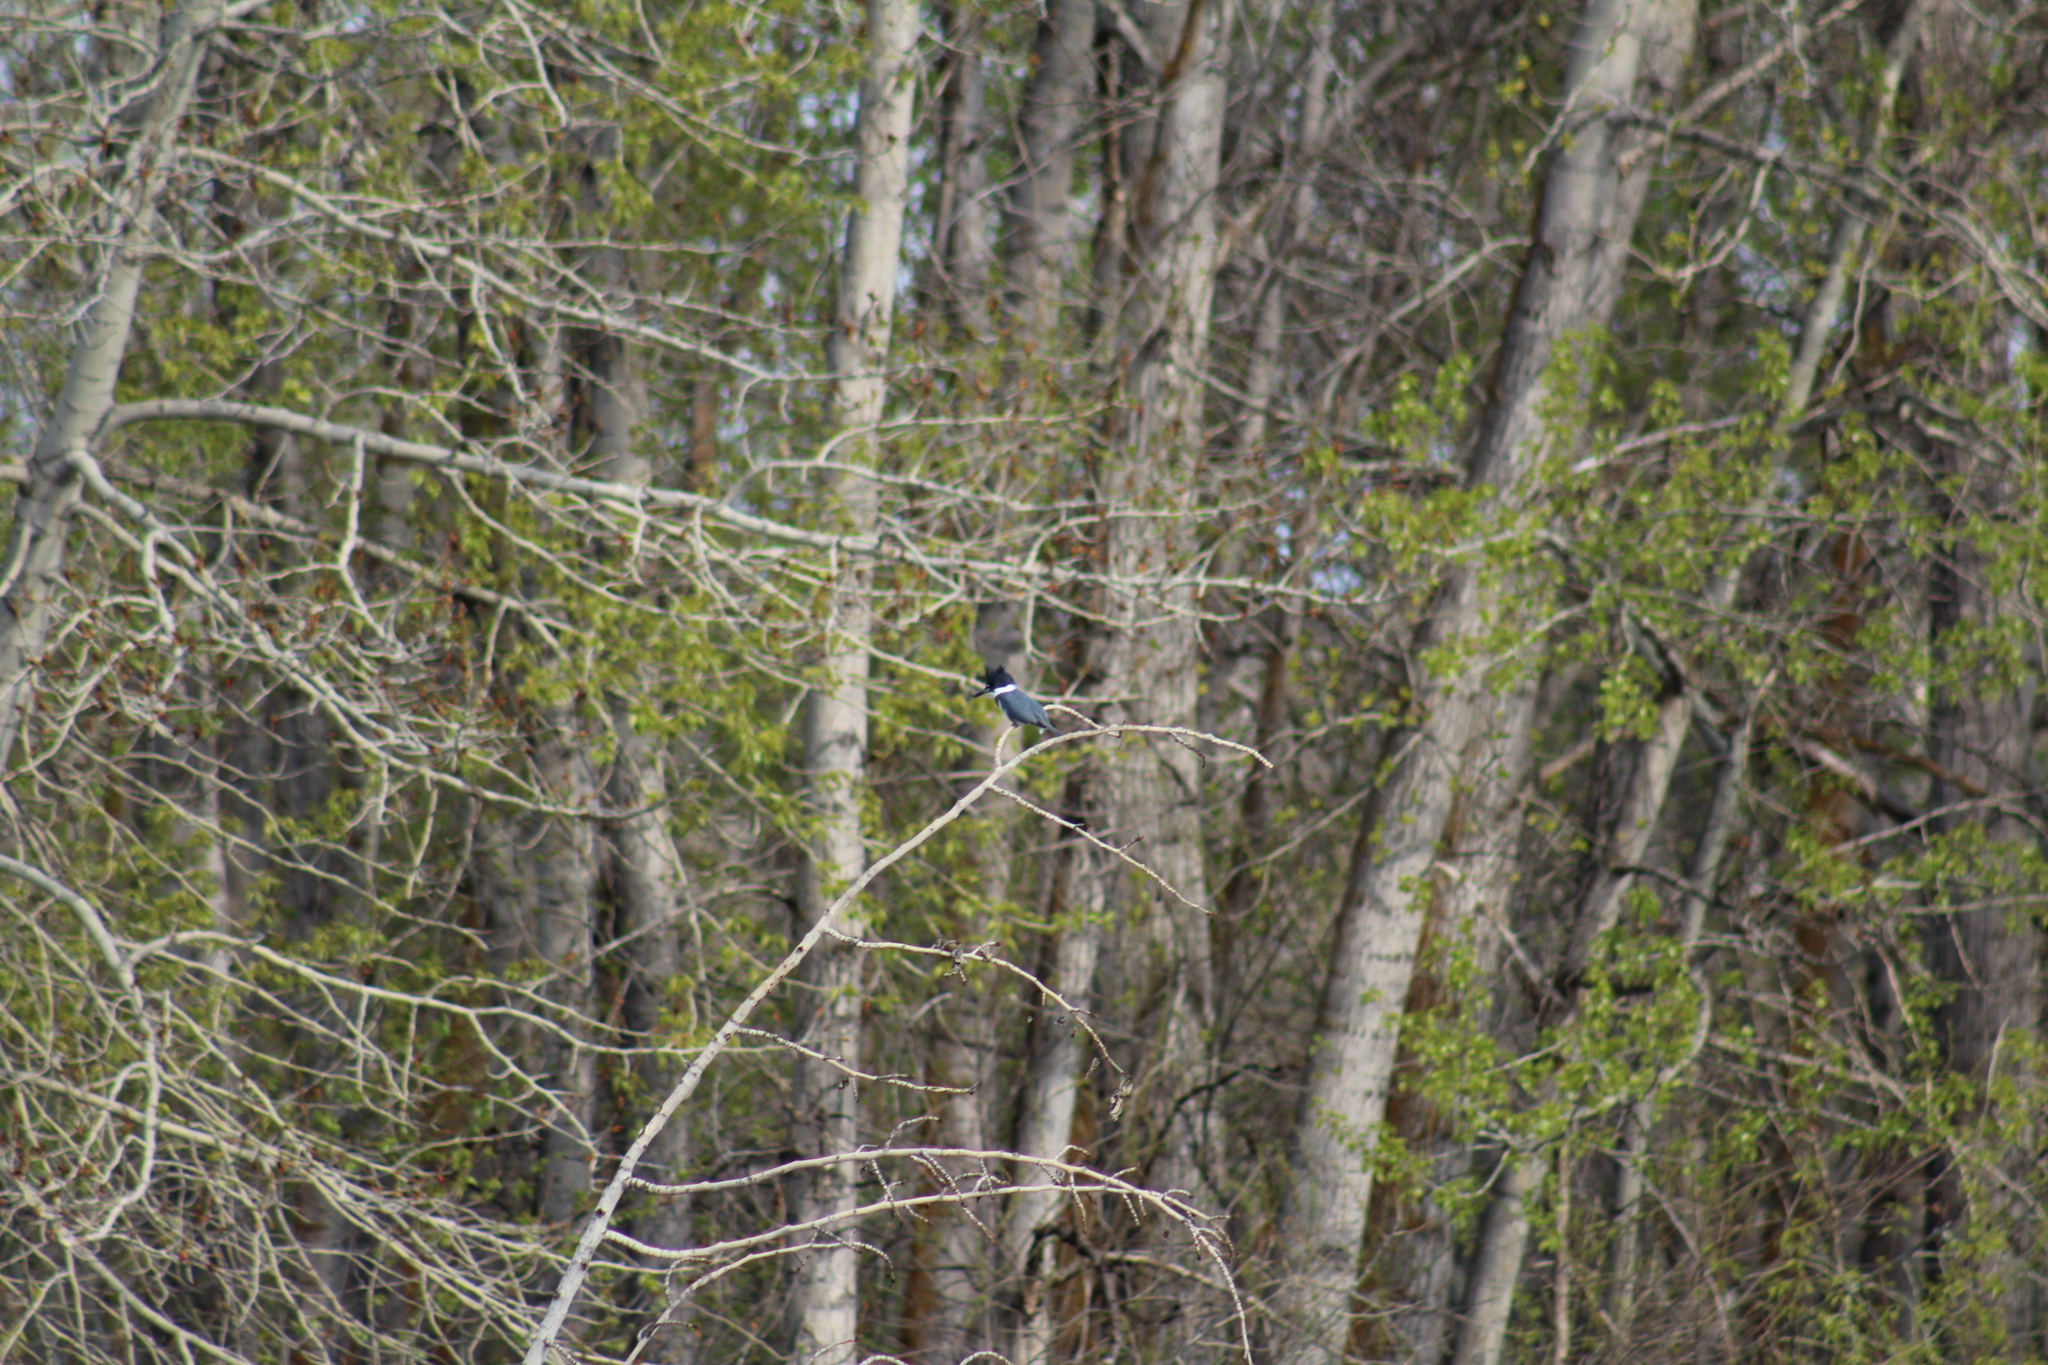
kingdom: Animalia
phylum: Chordata
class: Aves
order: Coraciiformes
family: Alcedinidae
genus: Megaceryle
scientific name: Megaceryle alcyon
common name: Belted kingfisher
